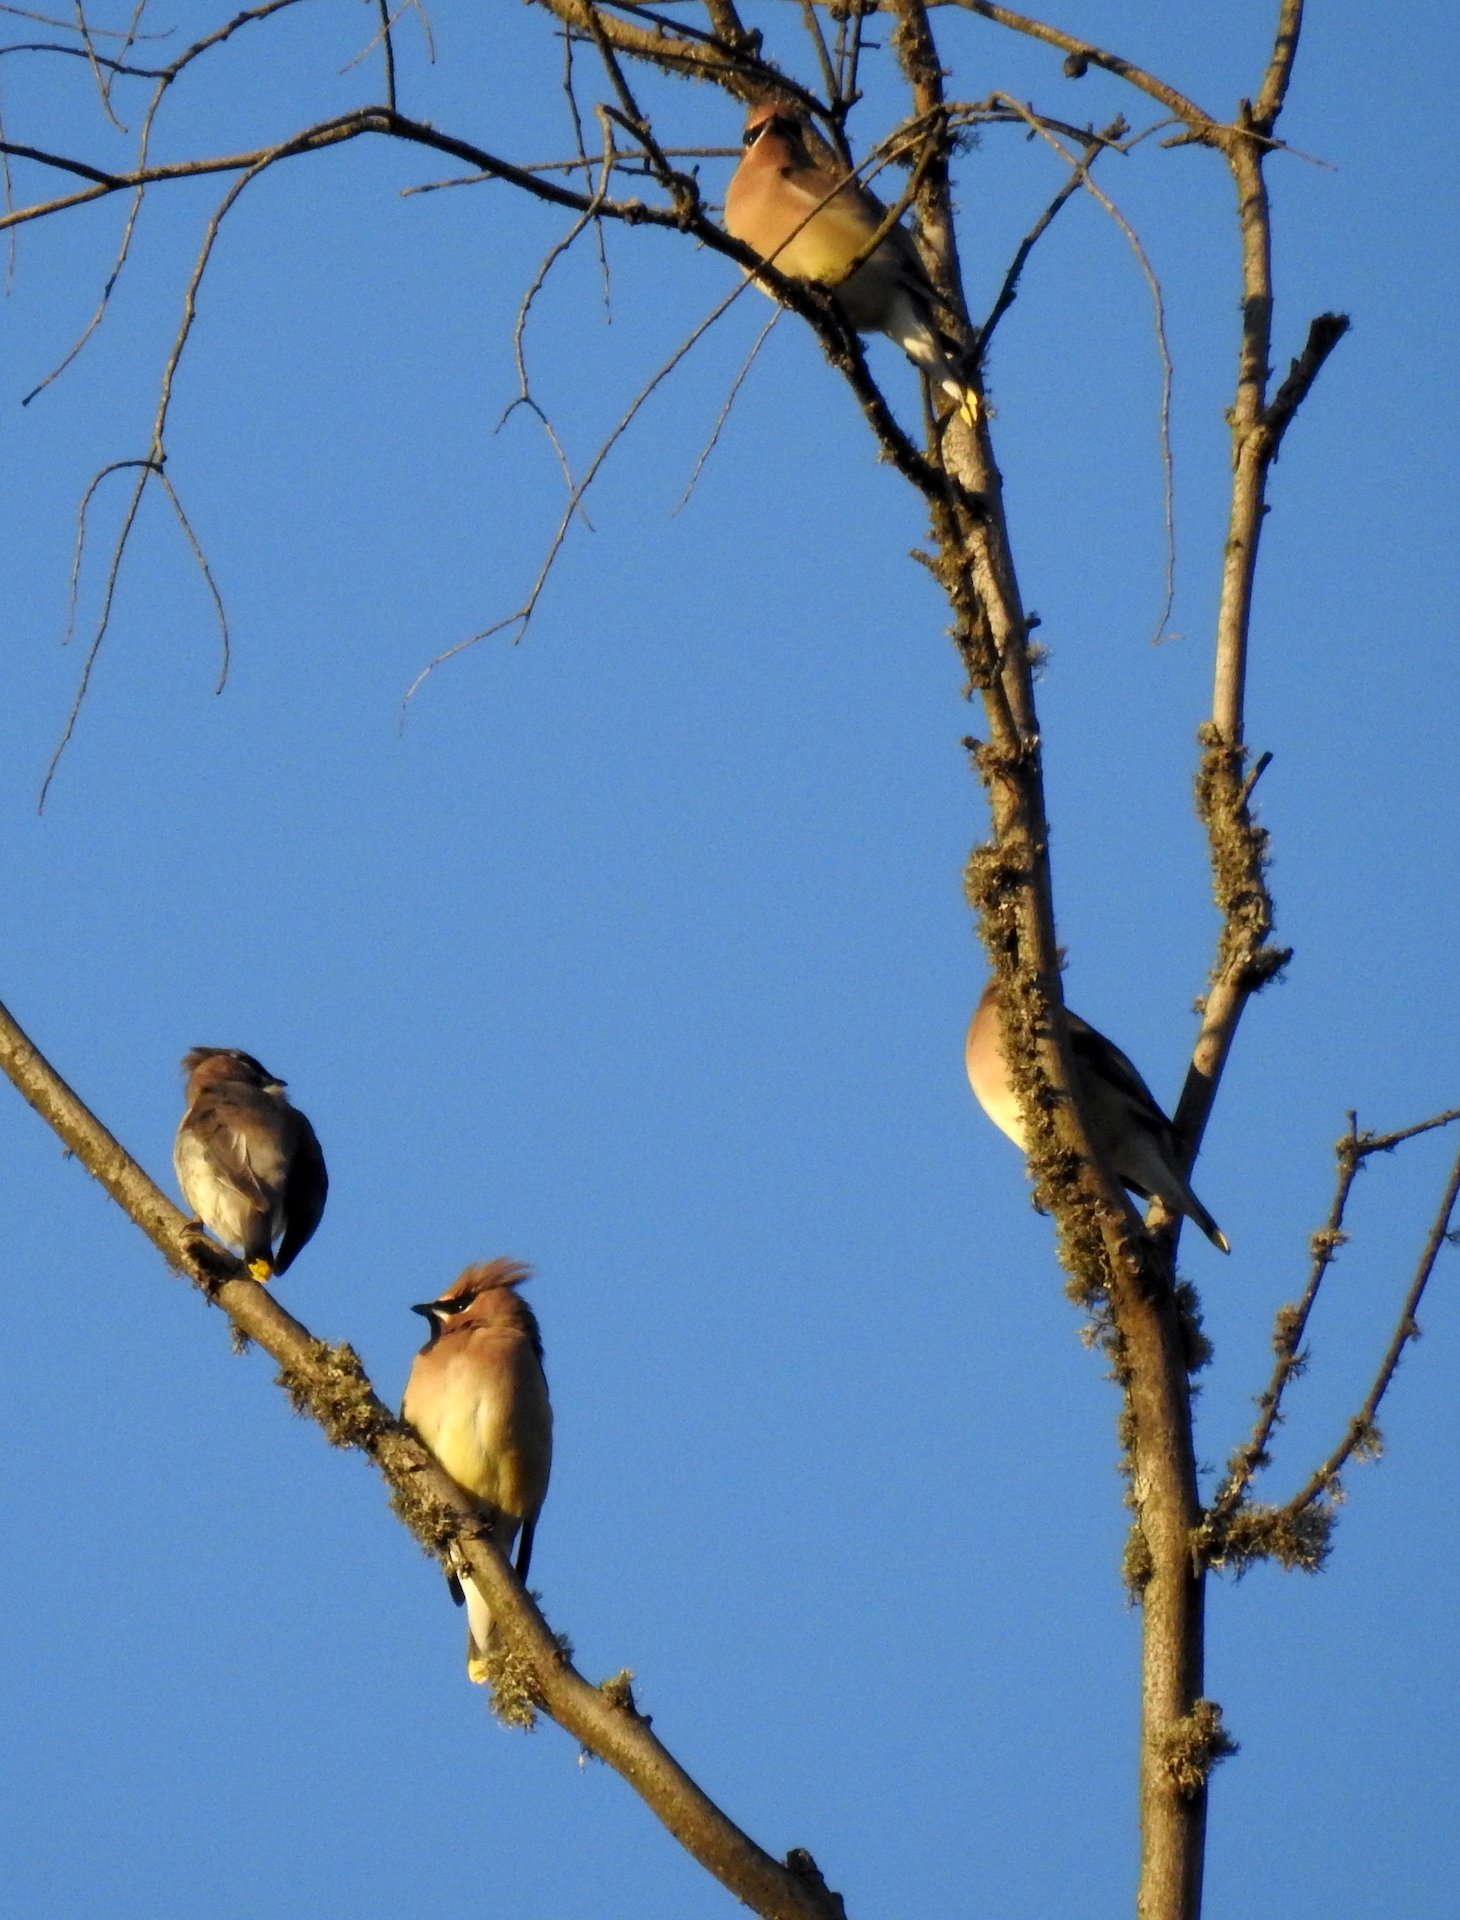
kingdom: Animalia
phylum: Chordata
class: Aves
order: Passeriformes
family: Bombycillidae
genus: Bombycilla
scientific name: Bombycilla cedrorum
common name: Cedar waxwing
